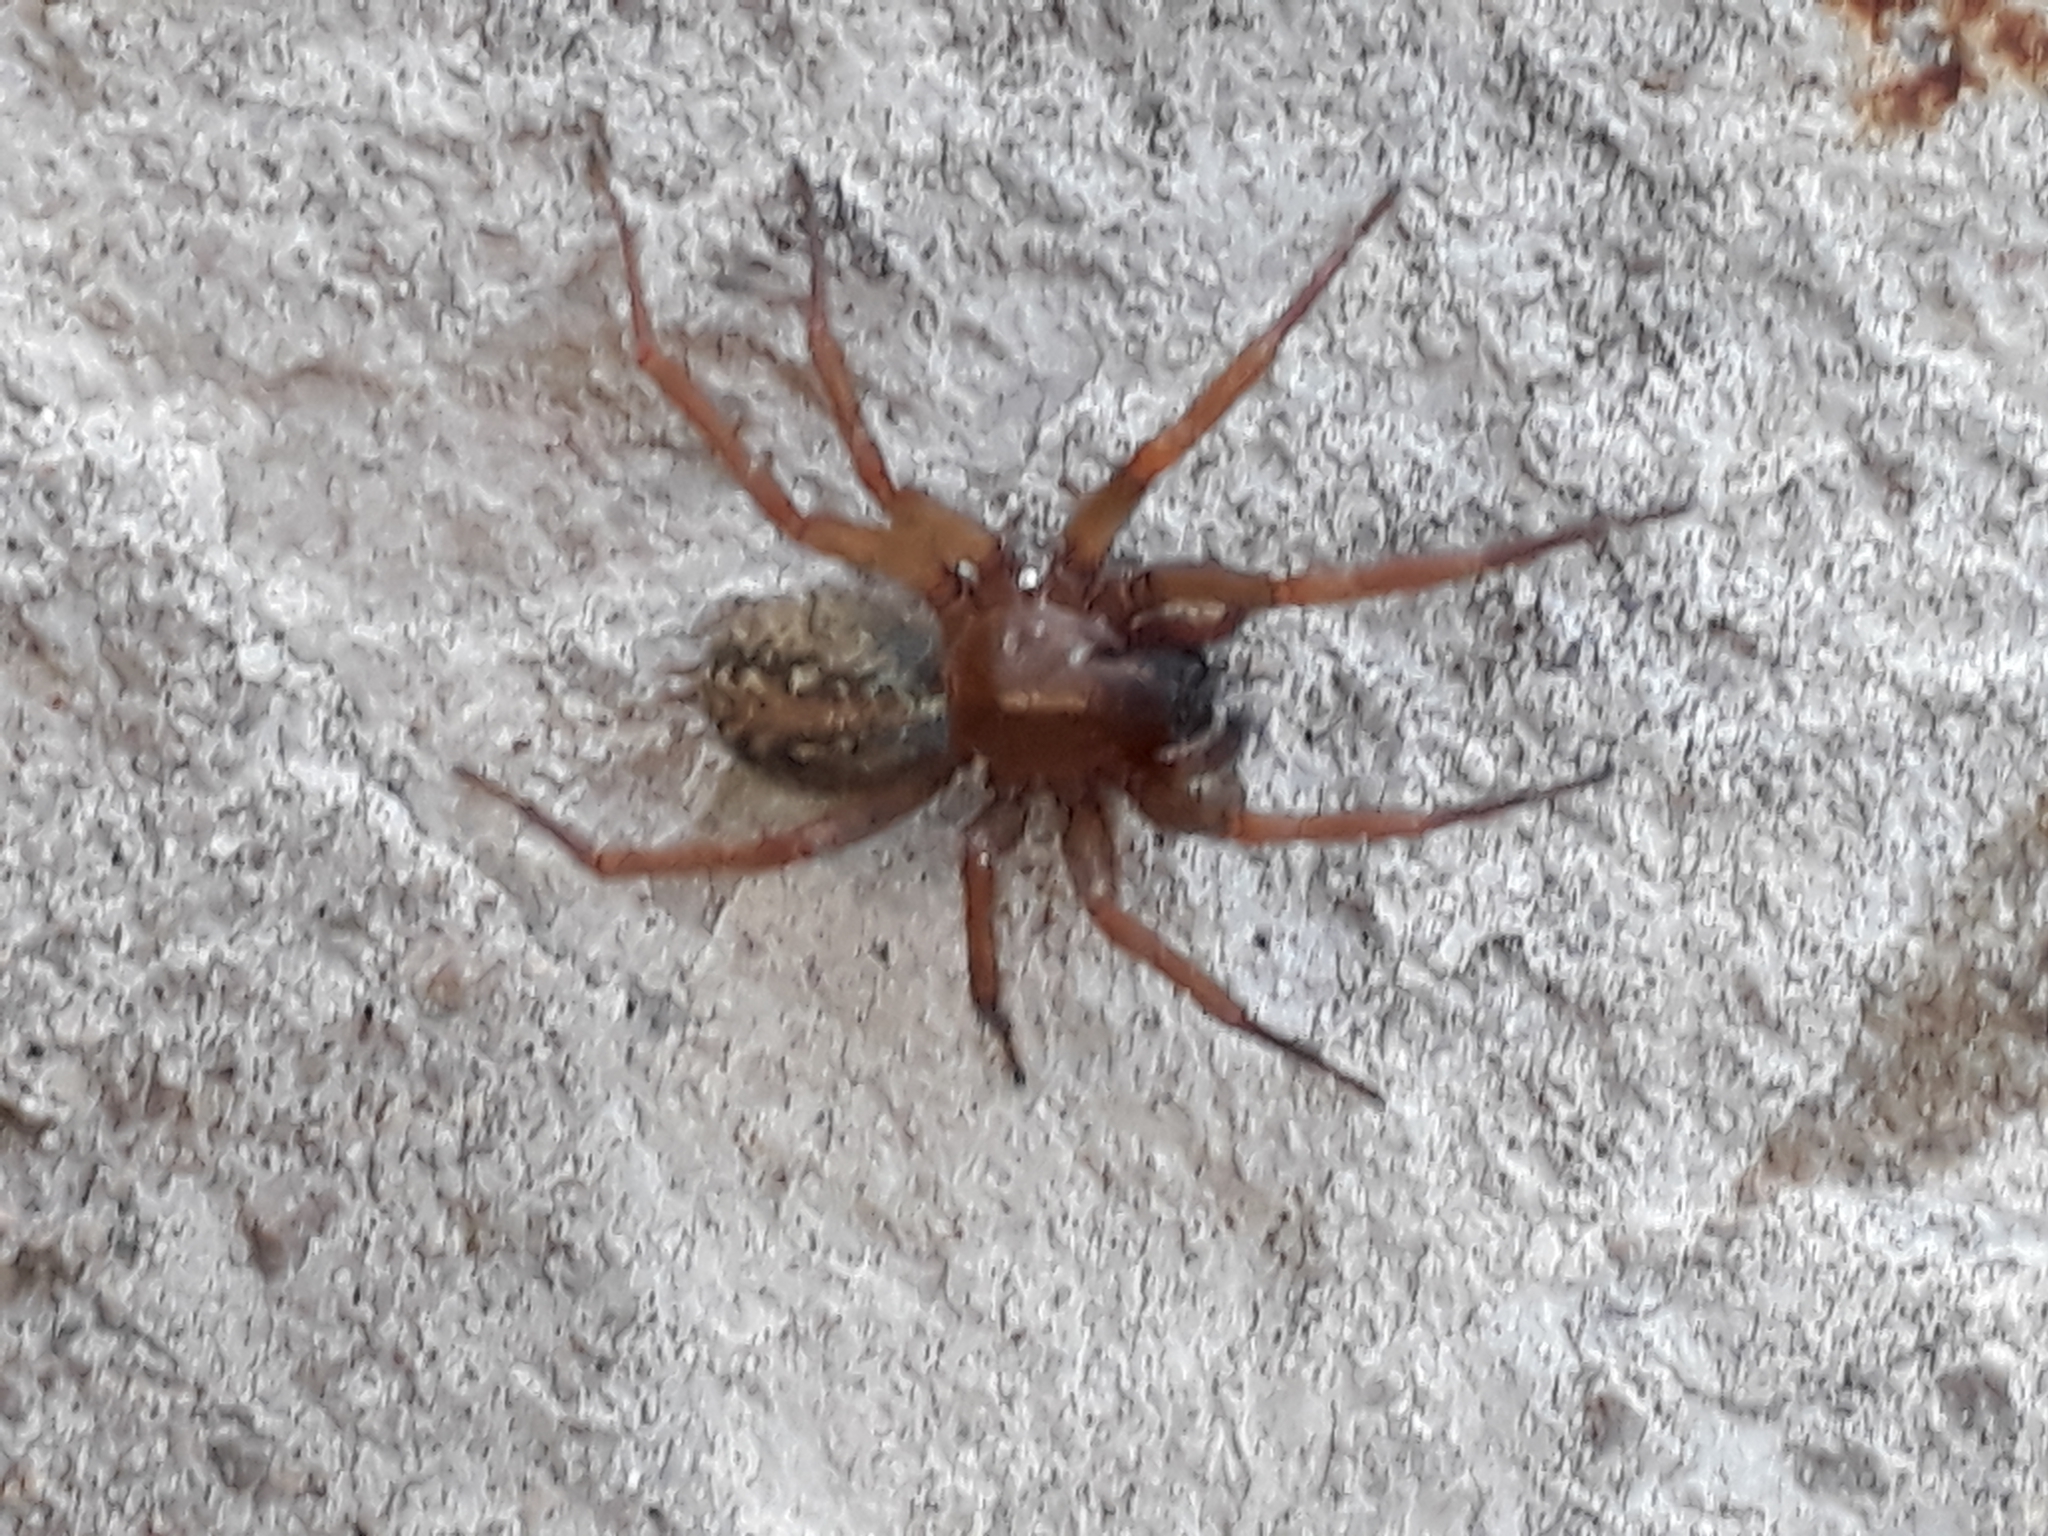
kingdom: Animalia
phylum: Arthropoda
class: Arachnida
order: Araneae
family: Agelenidae
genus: Lycosoides
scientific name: Lycosoides coarctata
